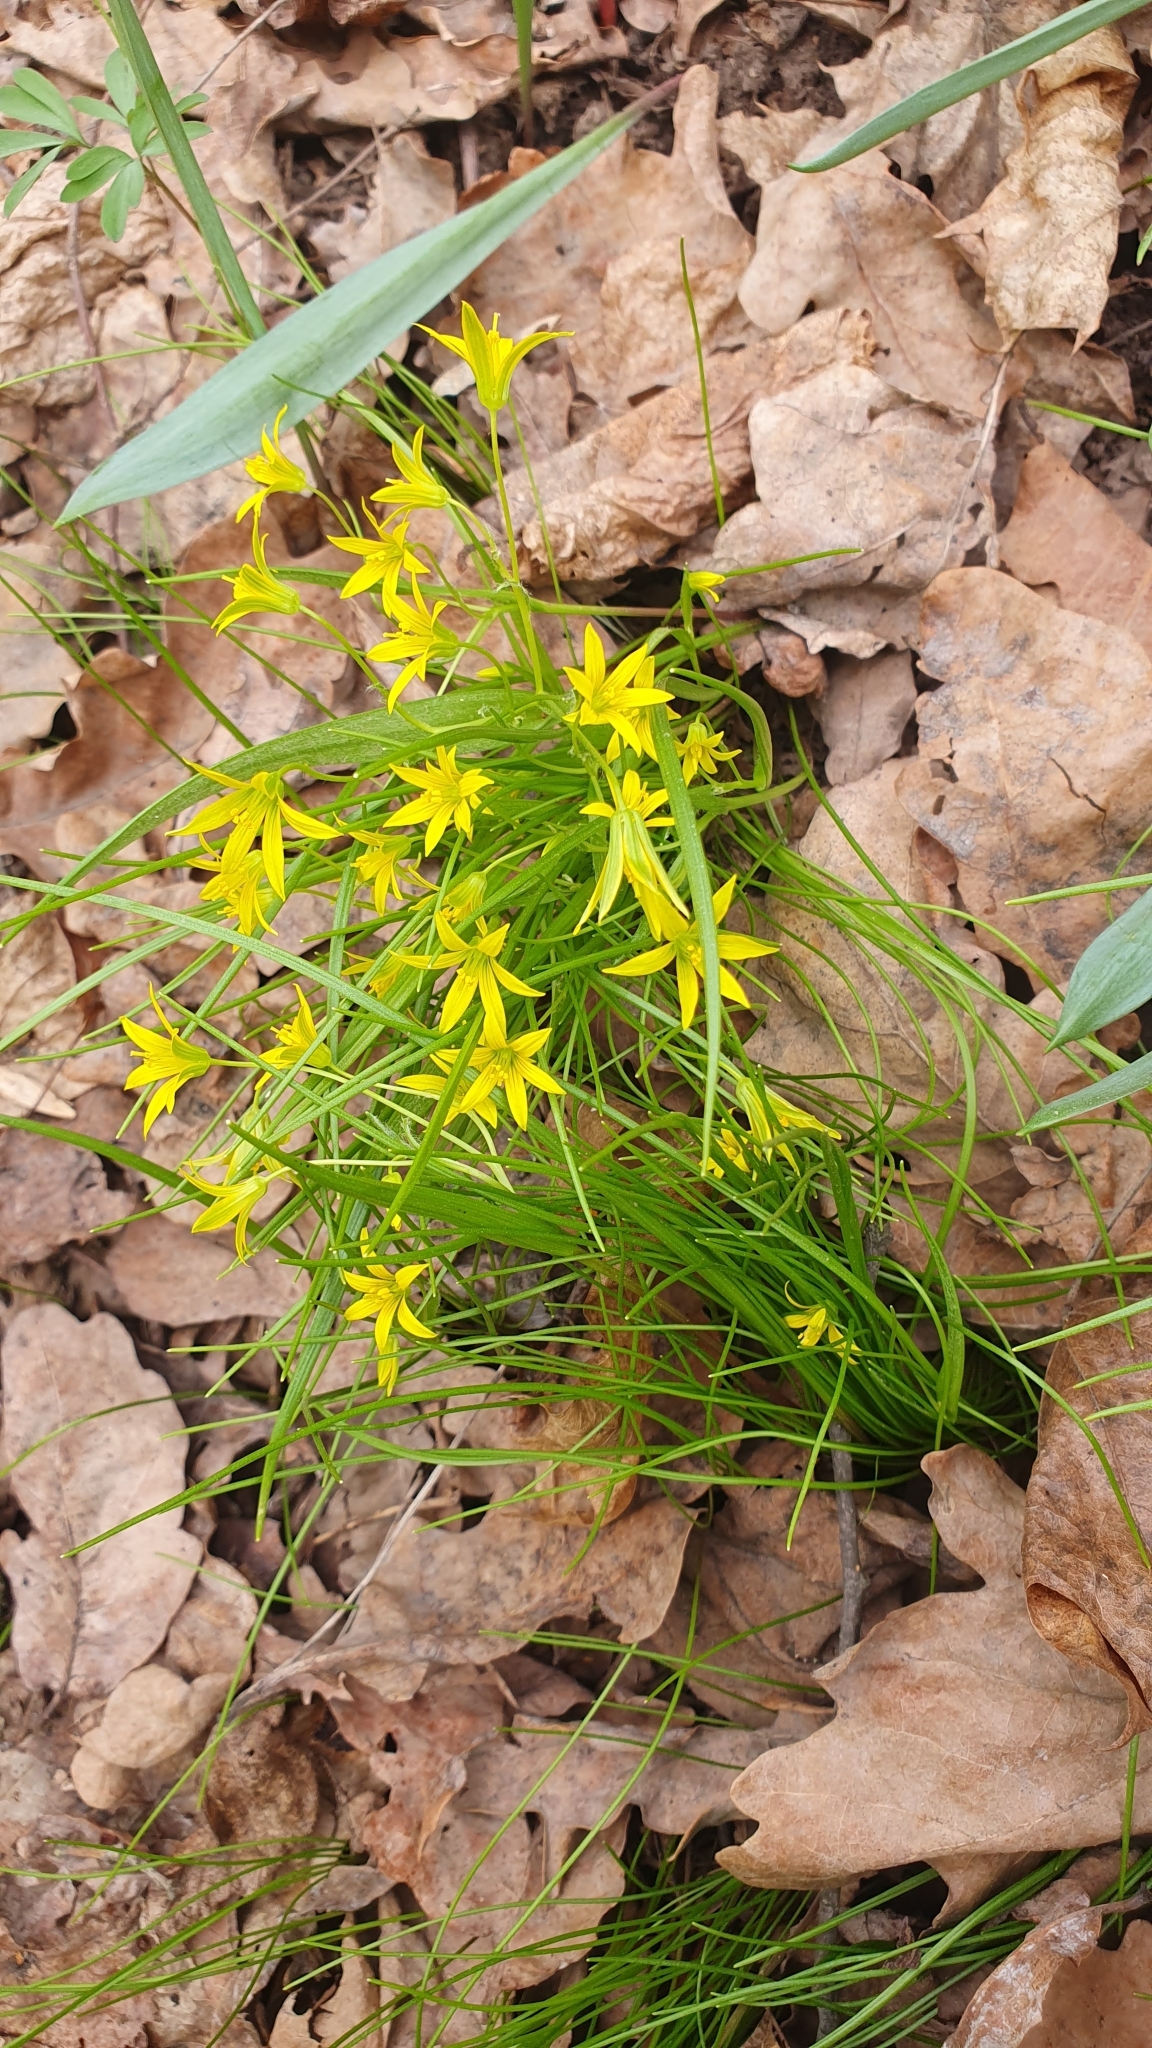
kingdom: Plantae
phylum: Tracheophyta
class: Liliopsida
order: Liliales
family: Liliaceae
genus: Gagea
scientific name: Gagea minima
